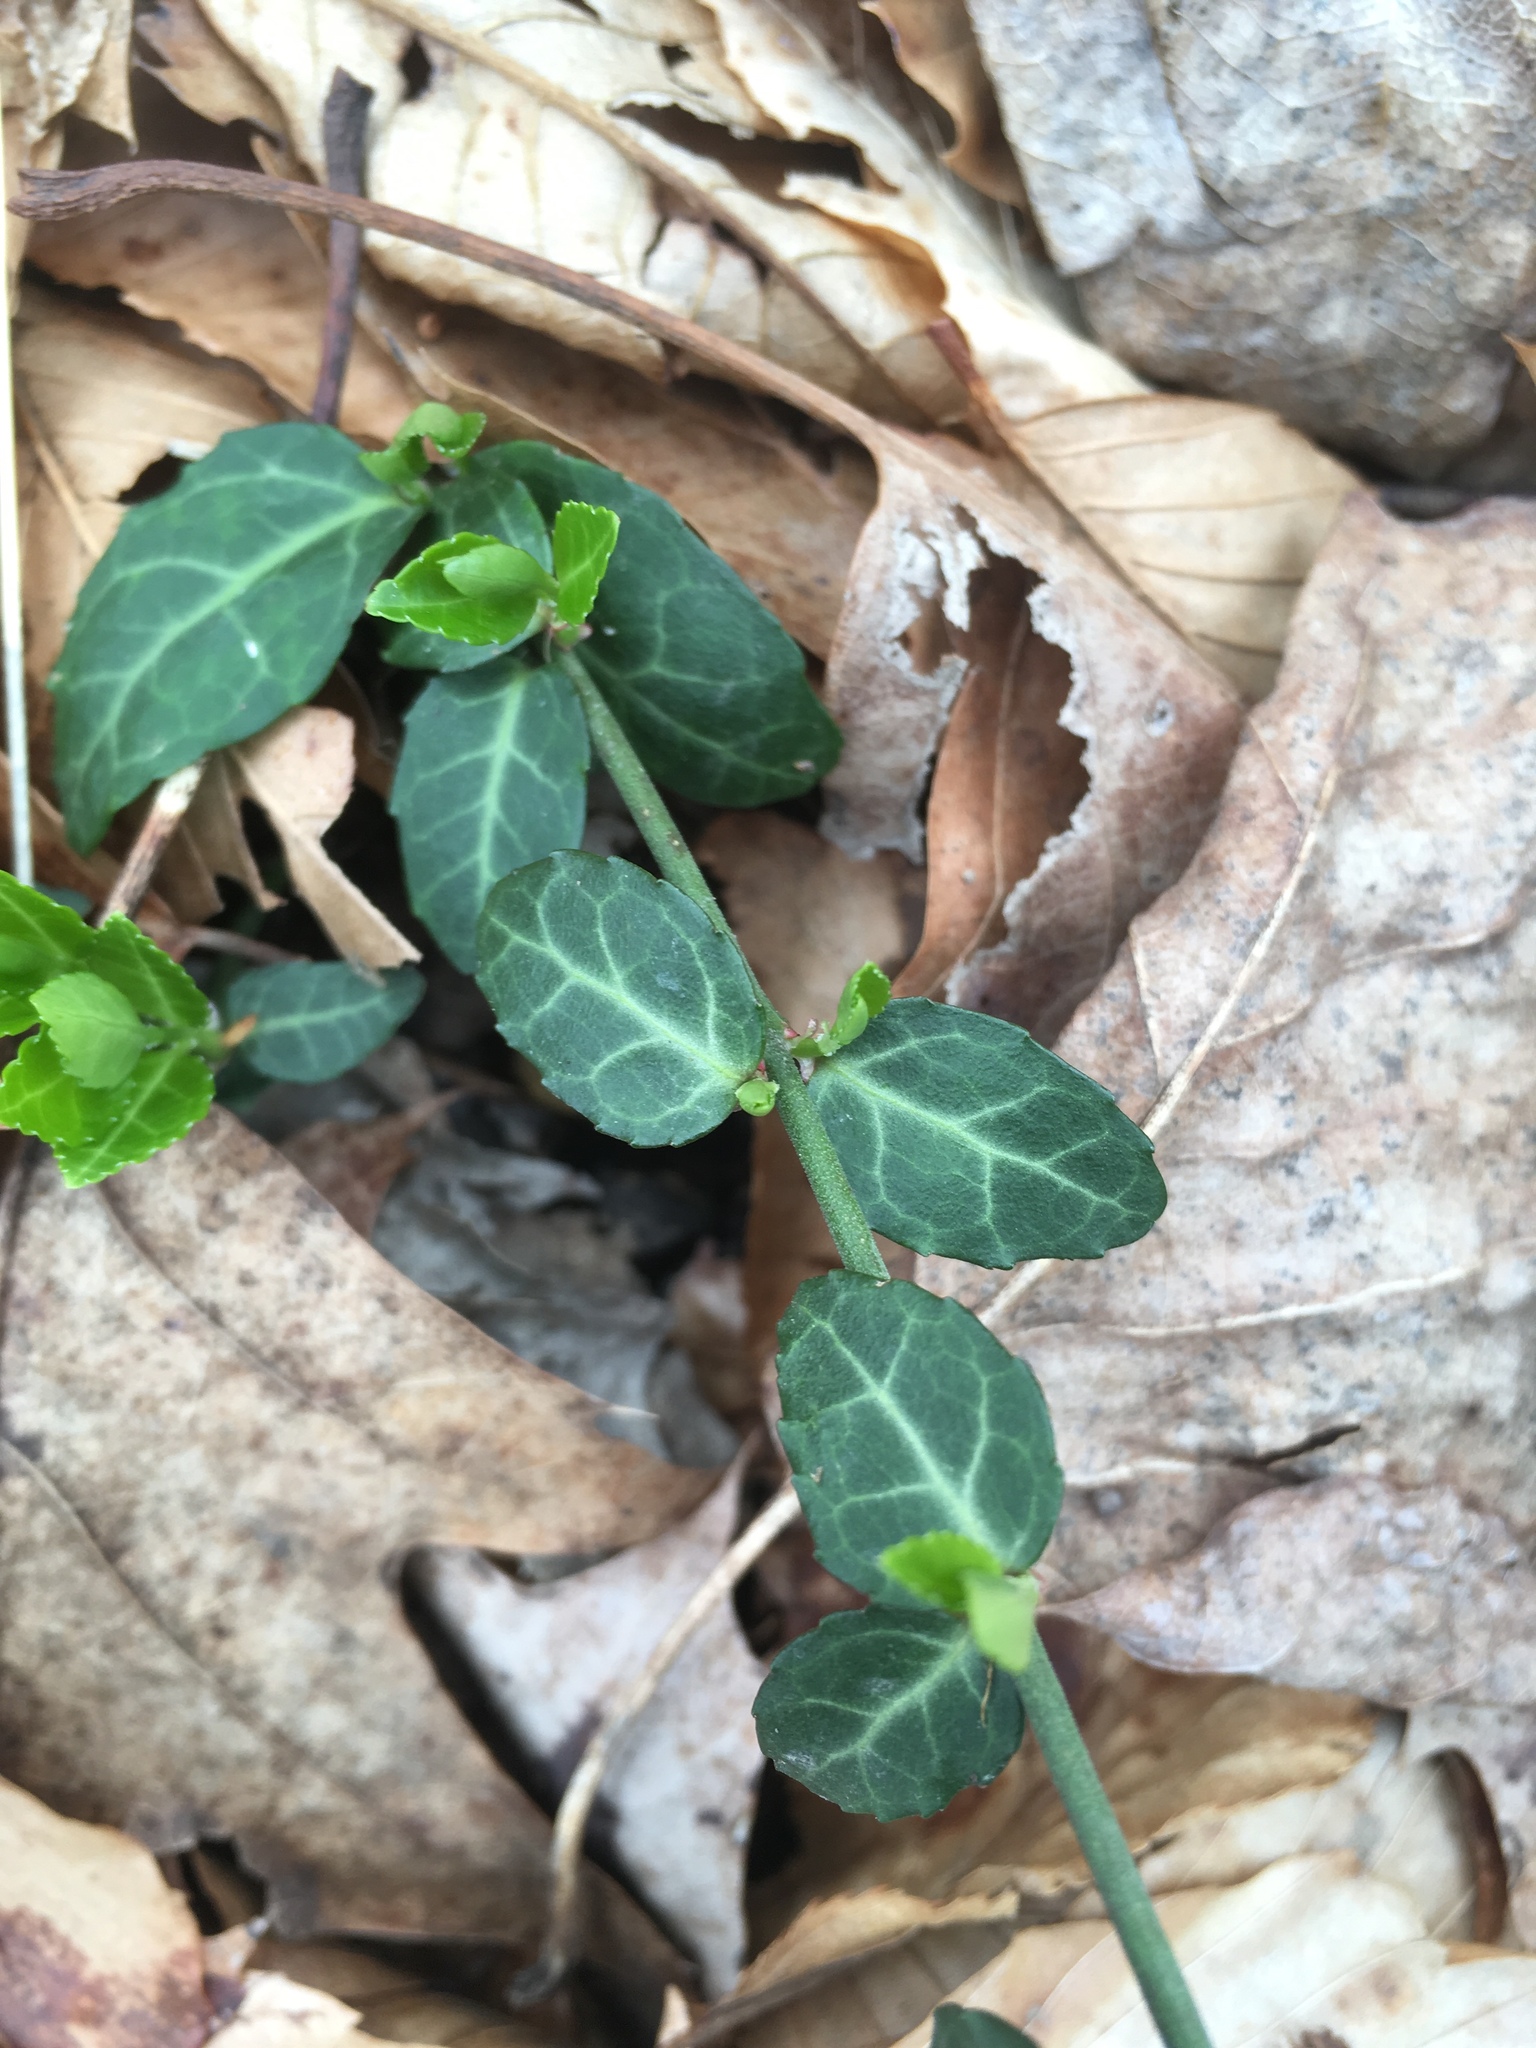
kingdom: Plantae
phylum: Tracheophyta
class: Magnoliopsida
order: Celastrales
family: Celastraceae
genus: Euonymus
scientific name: Euonymus fortunei
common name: Climbing euonymus
